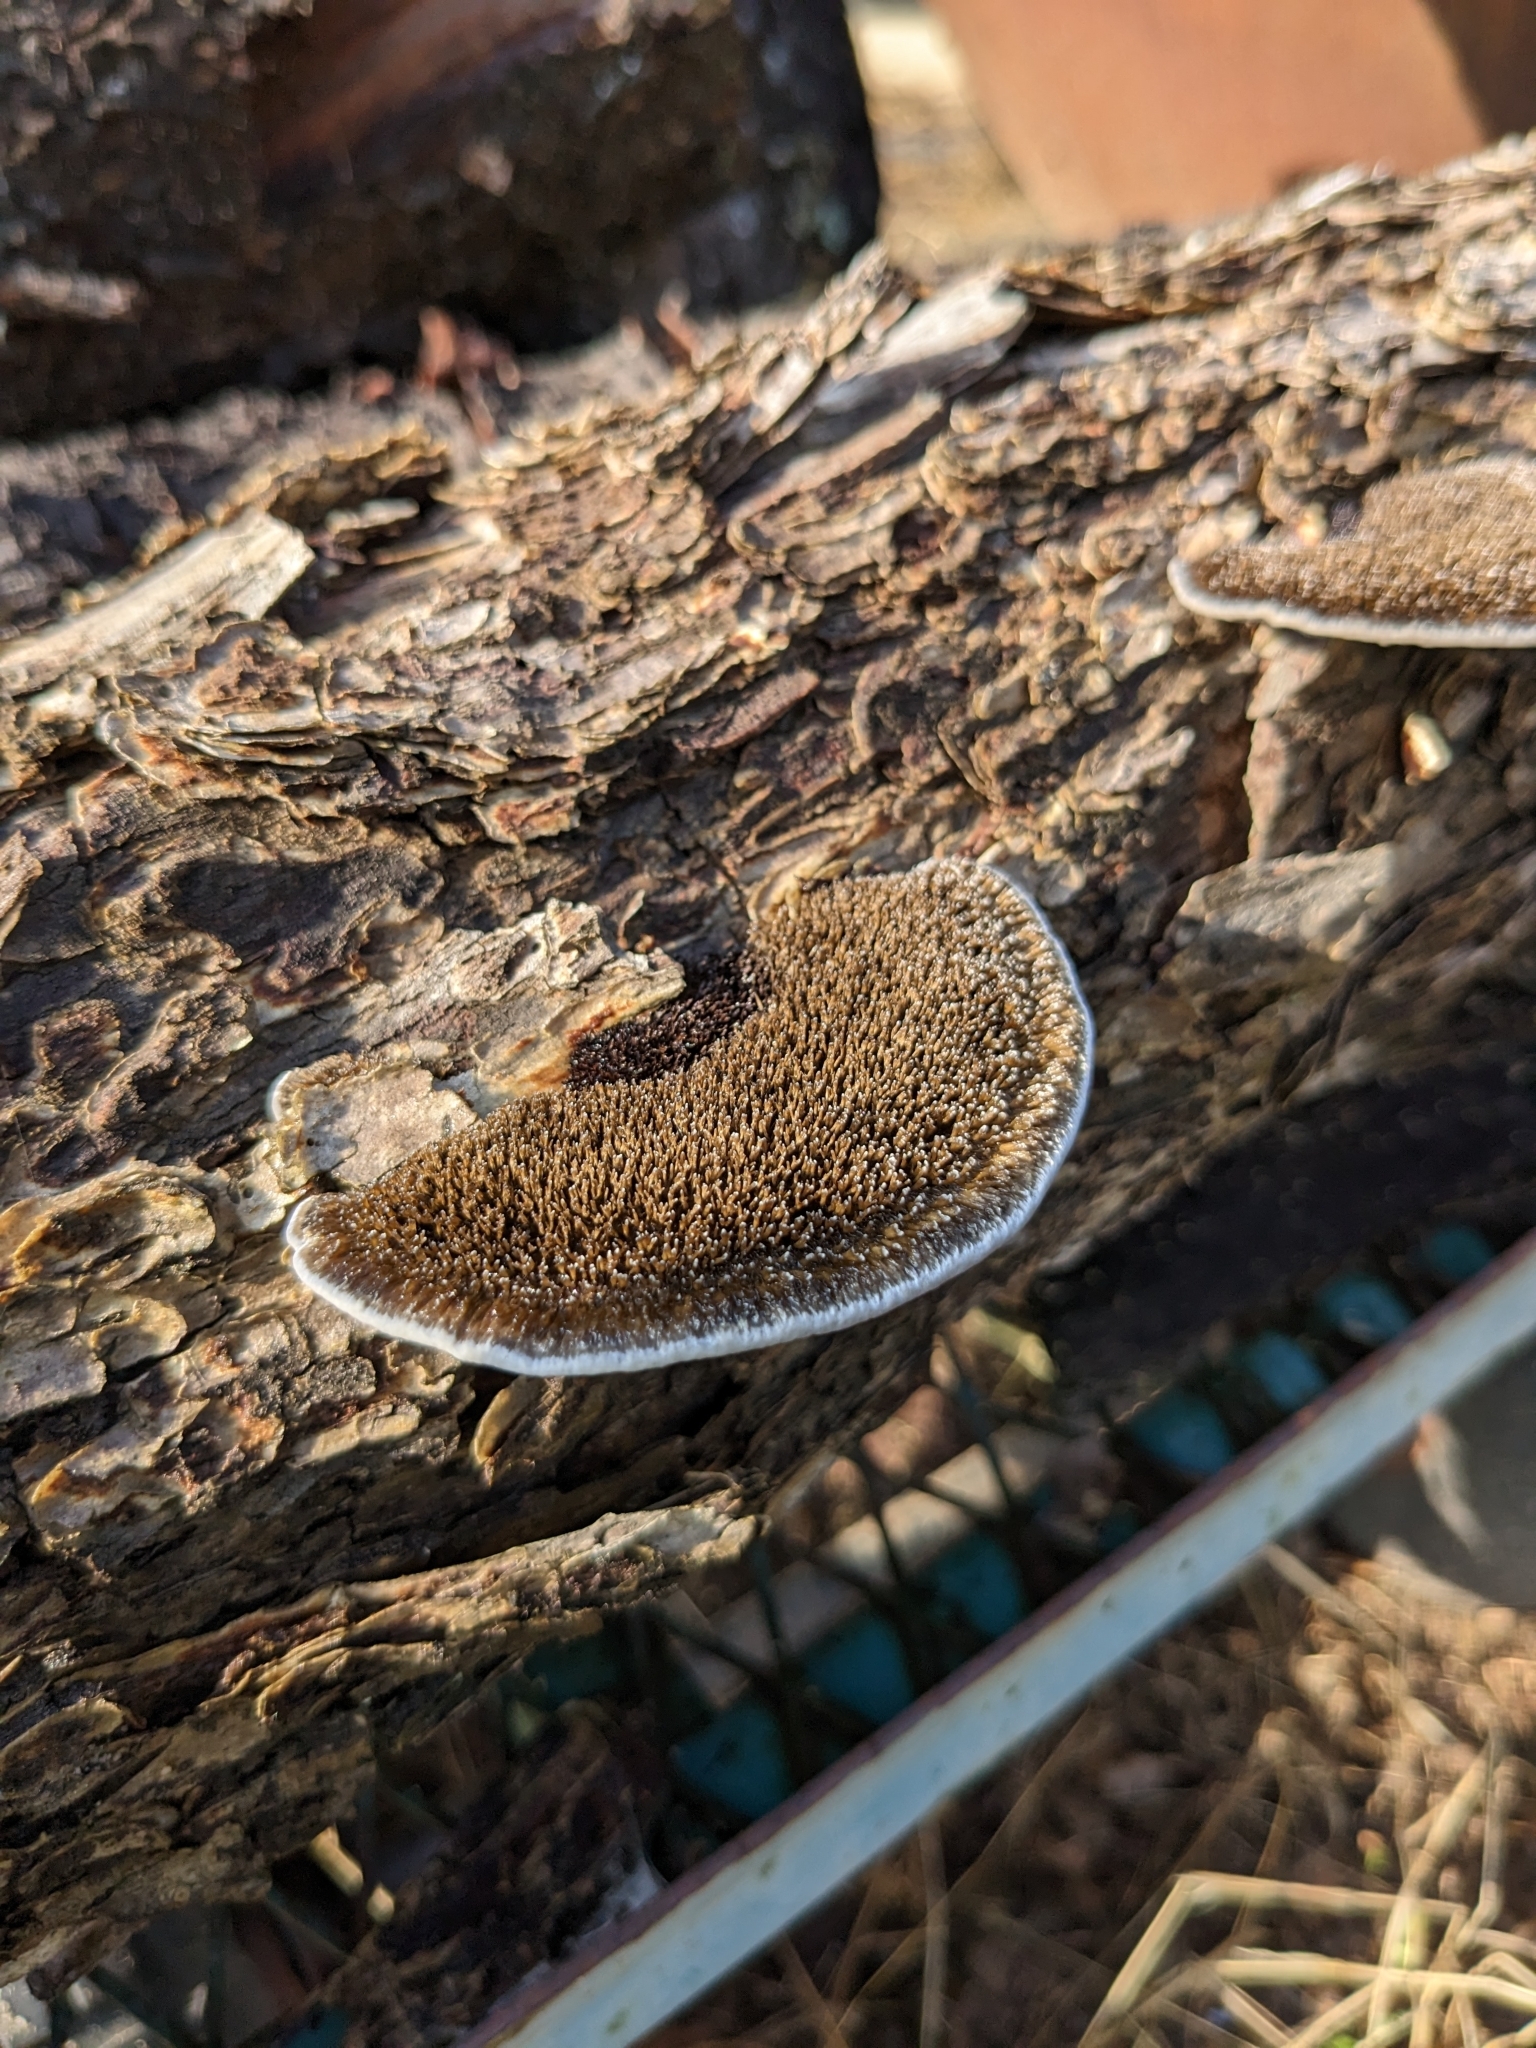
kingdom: Fungi
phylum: Basidiomycota
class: Agaricomycetes
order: Polyporales
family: Cerrenaceae
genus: Cerrena
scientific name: Cerrena hydnoides
